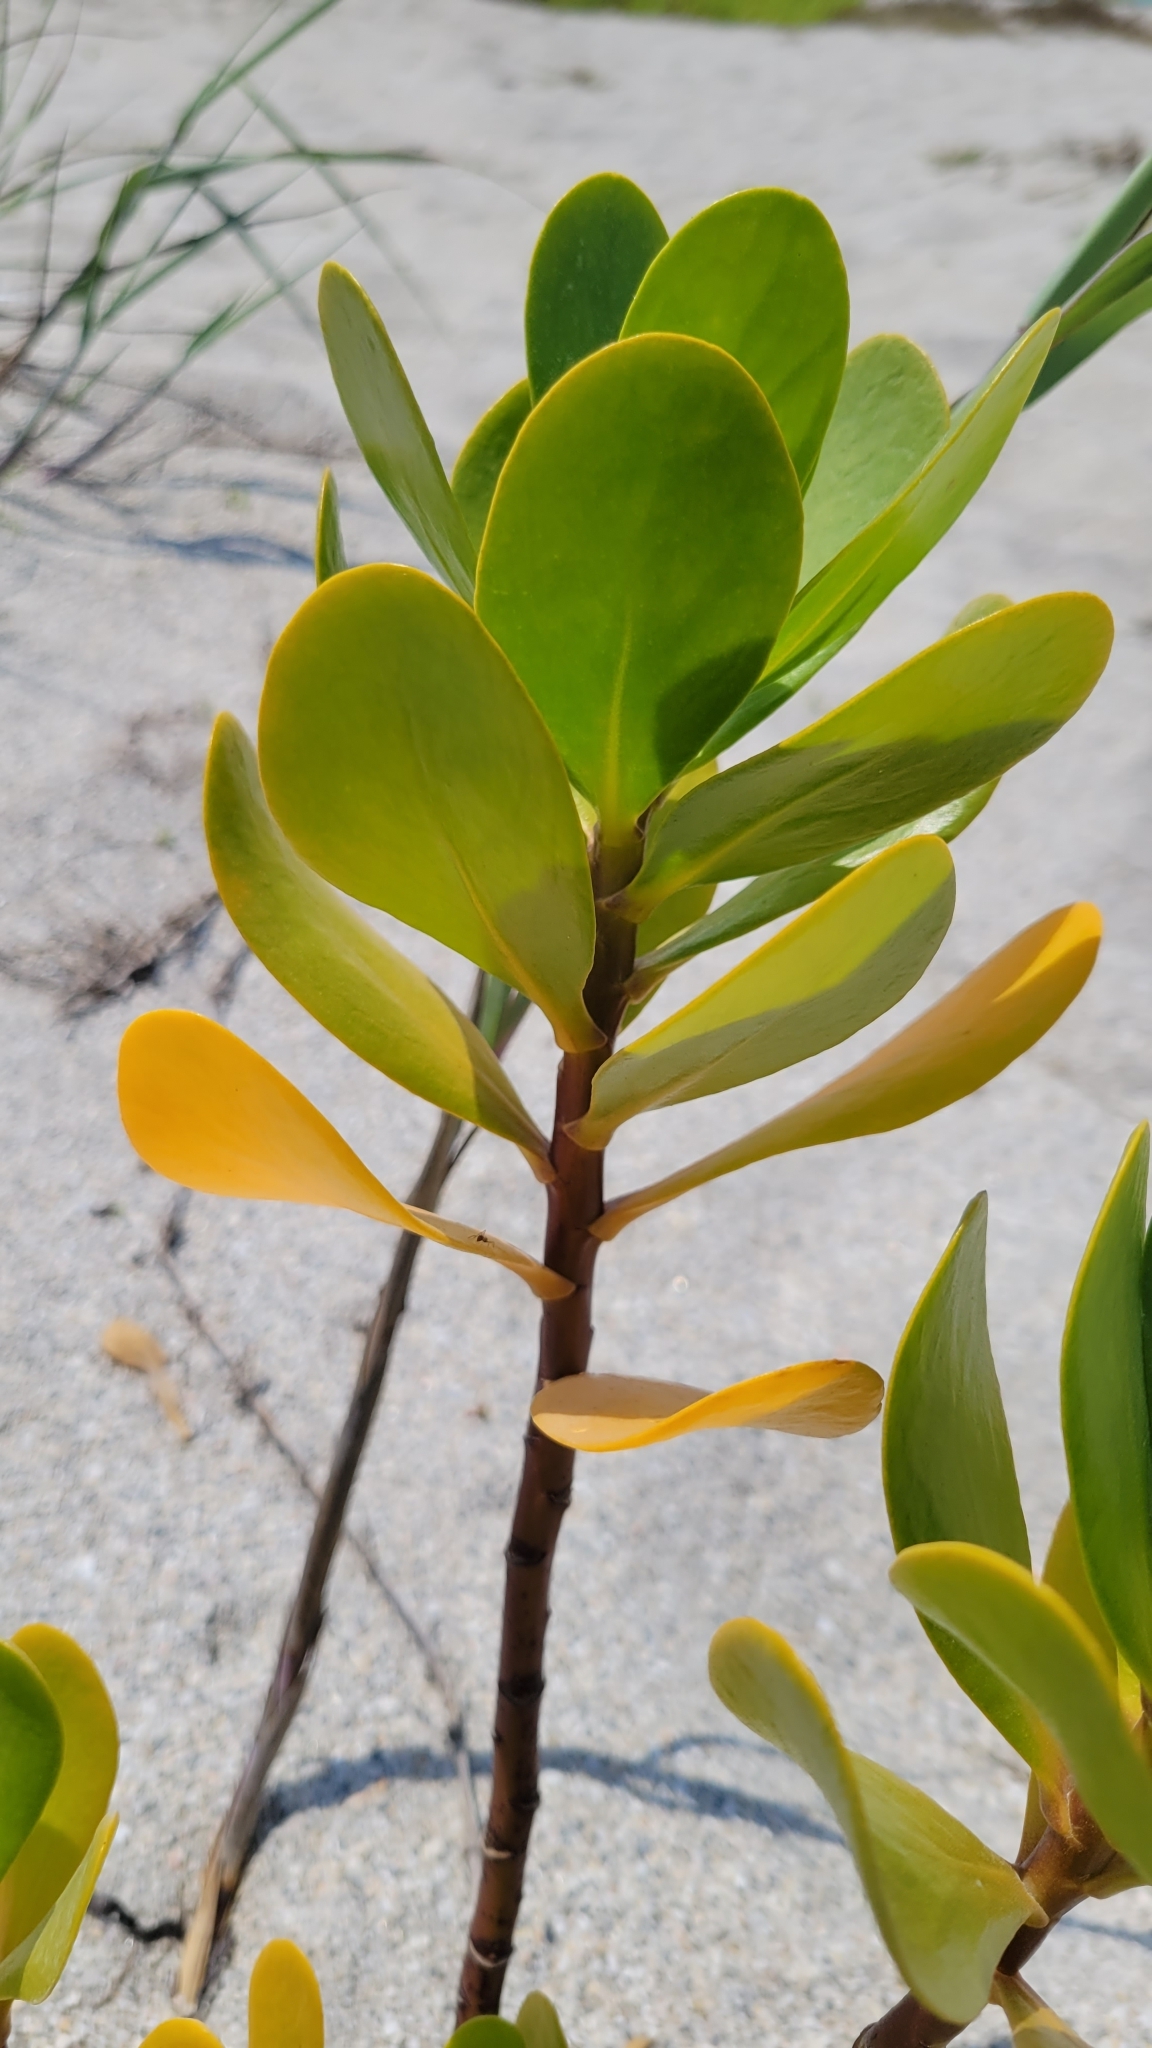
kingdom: Plantae
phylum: Tracheophyta
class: Magnoliopsida
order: Asterales
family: Goodeniaceae
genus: Scaevola
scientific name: Scaevola plumieri
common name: Gull feed
